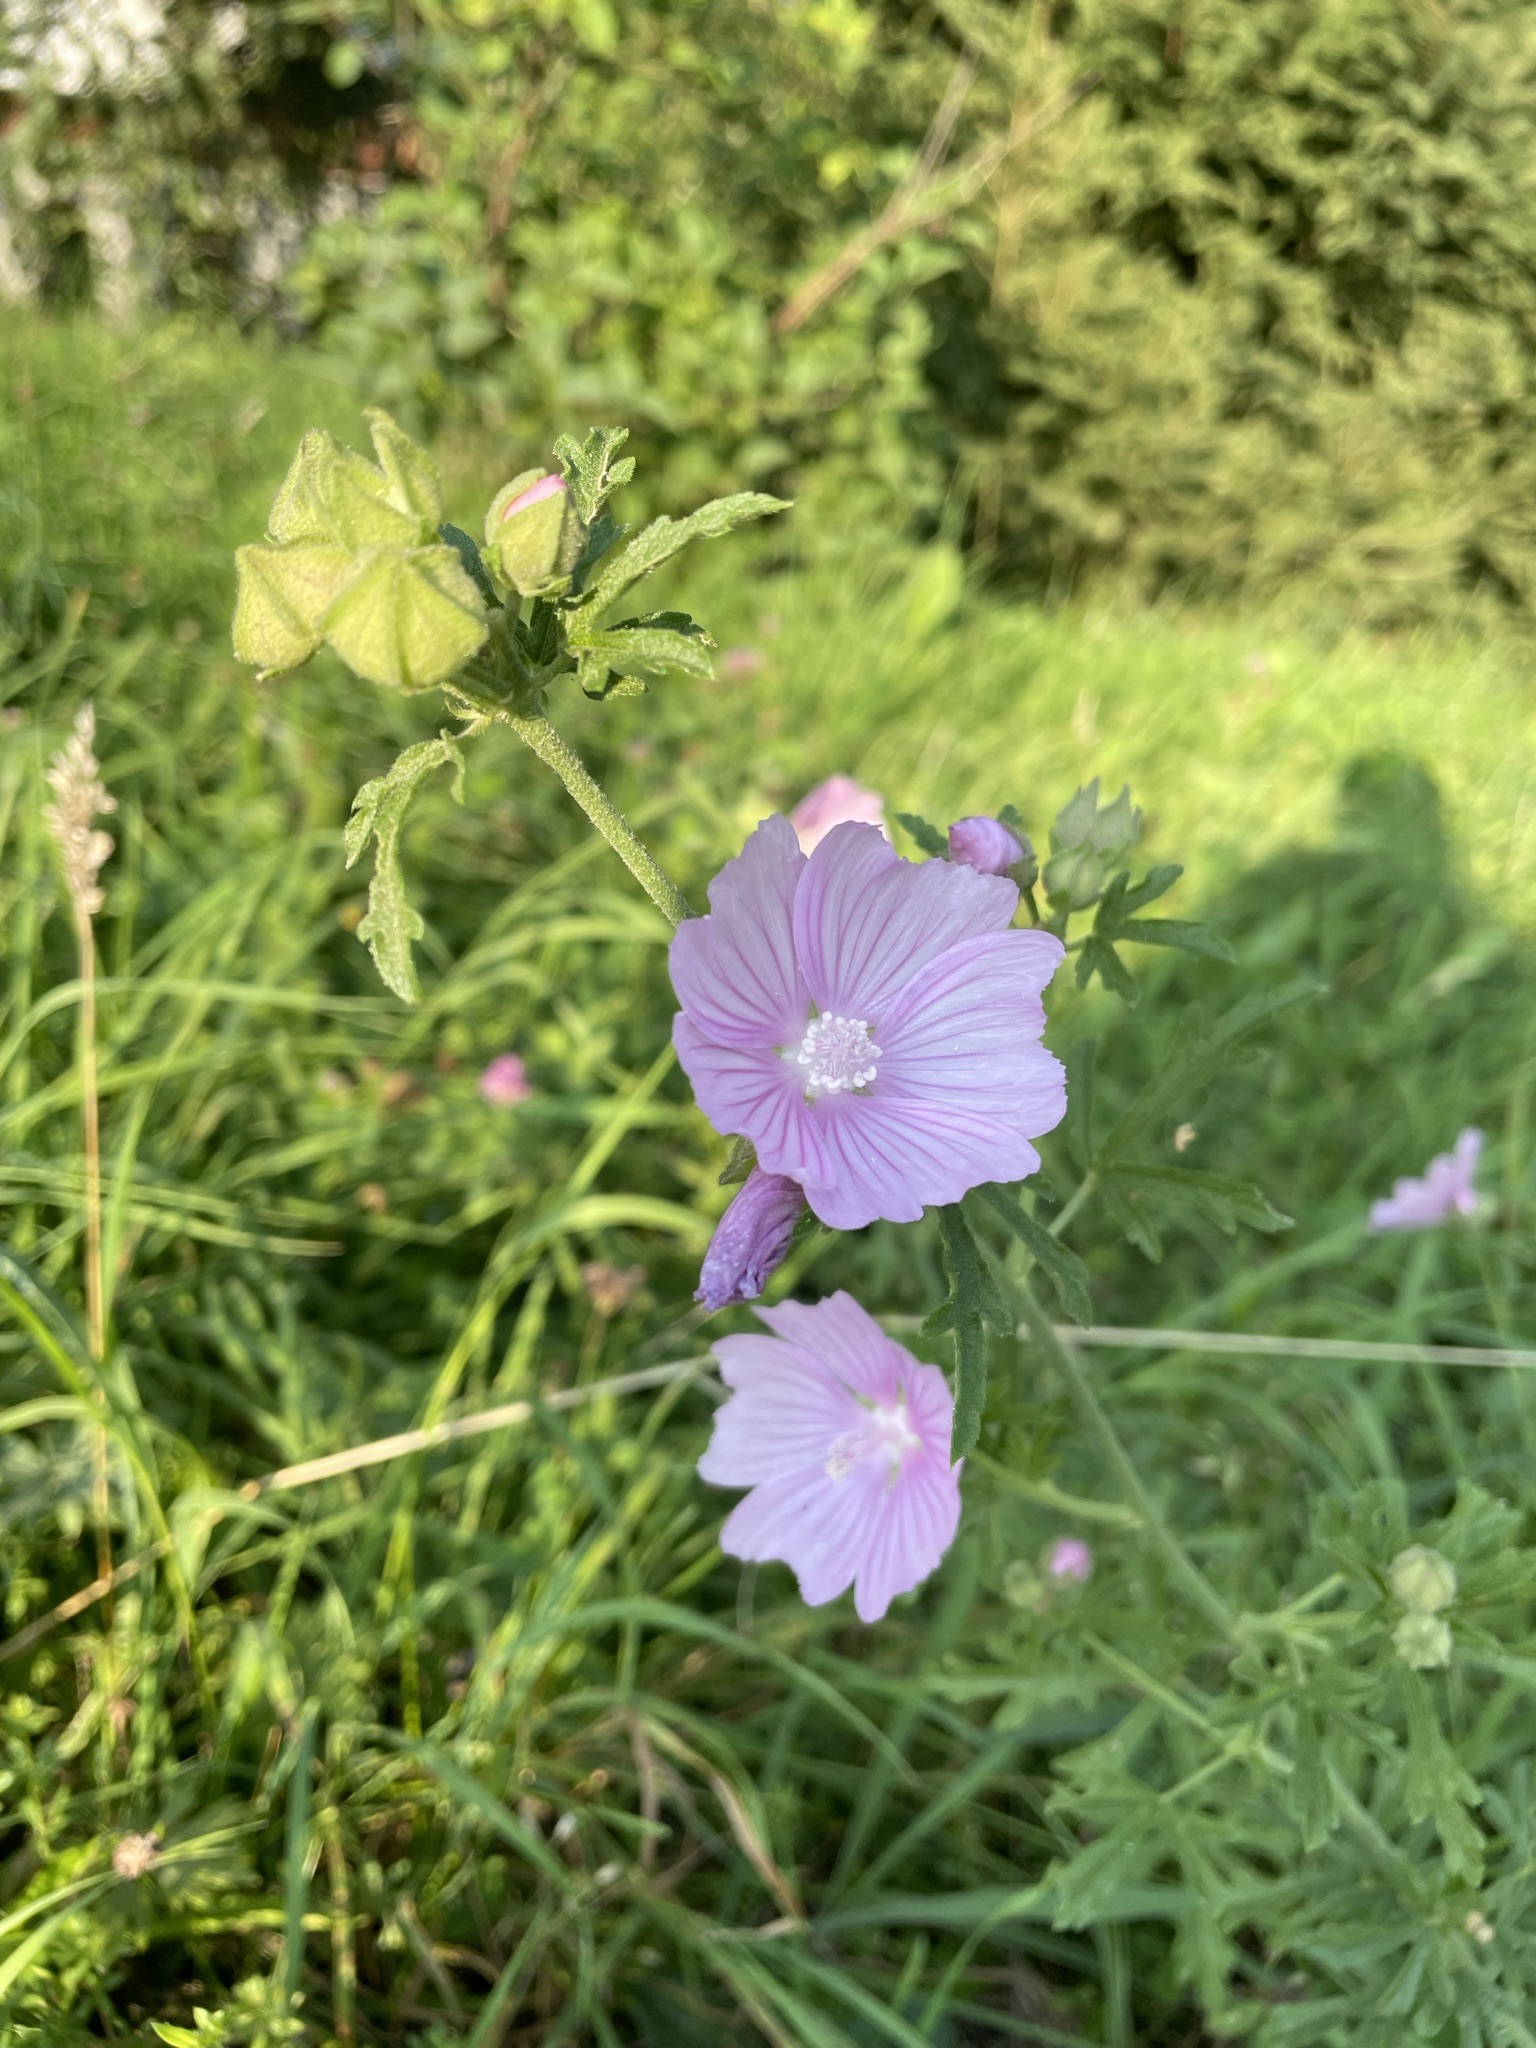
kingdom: Plantae
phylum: Tracheophyta
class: Magnoliopsida
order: Malvales
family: Malvaceae
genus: Malva
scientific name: Malva alcea
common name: Greater musk-mallow
